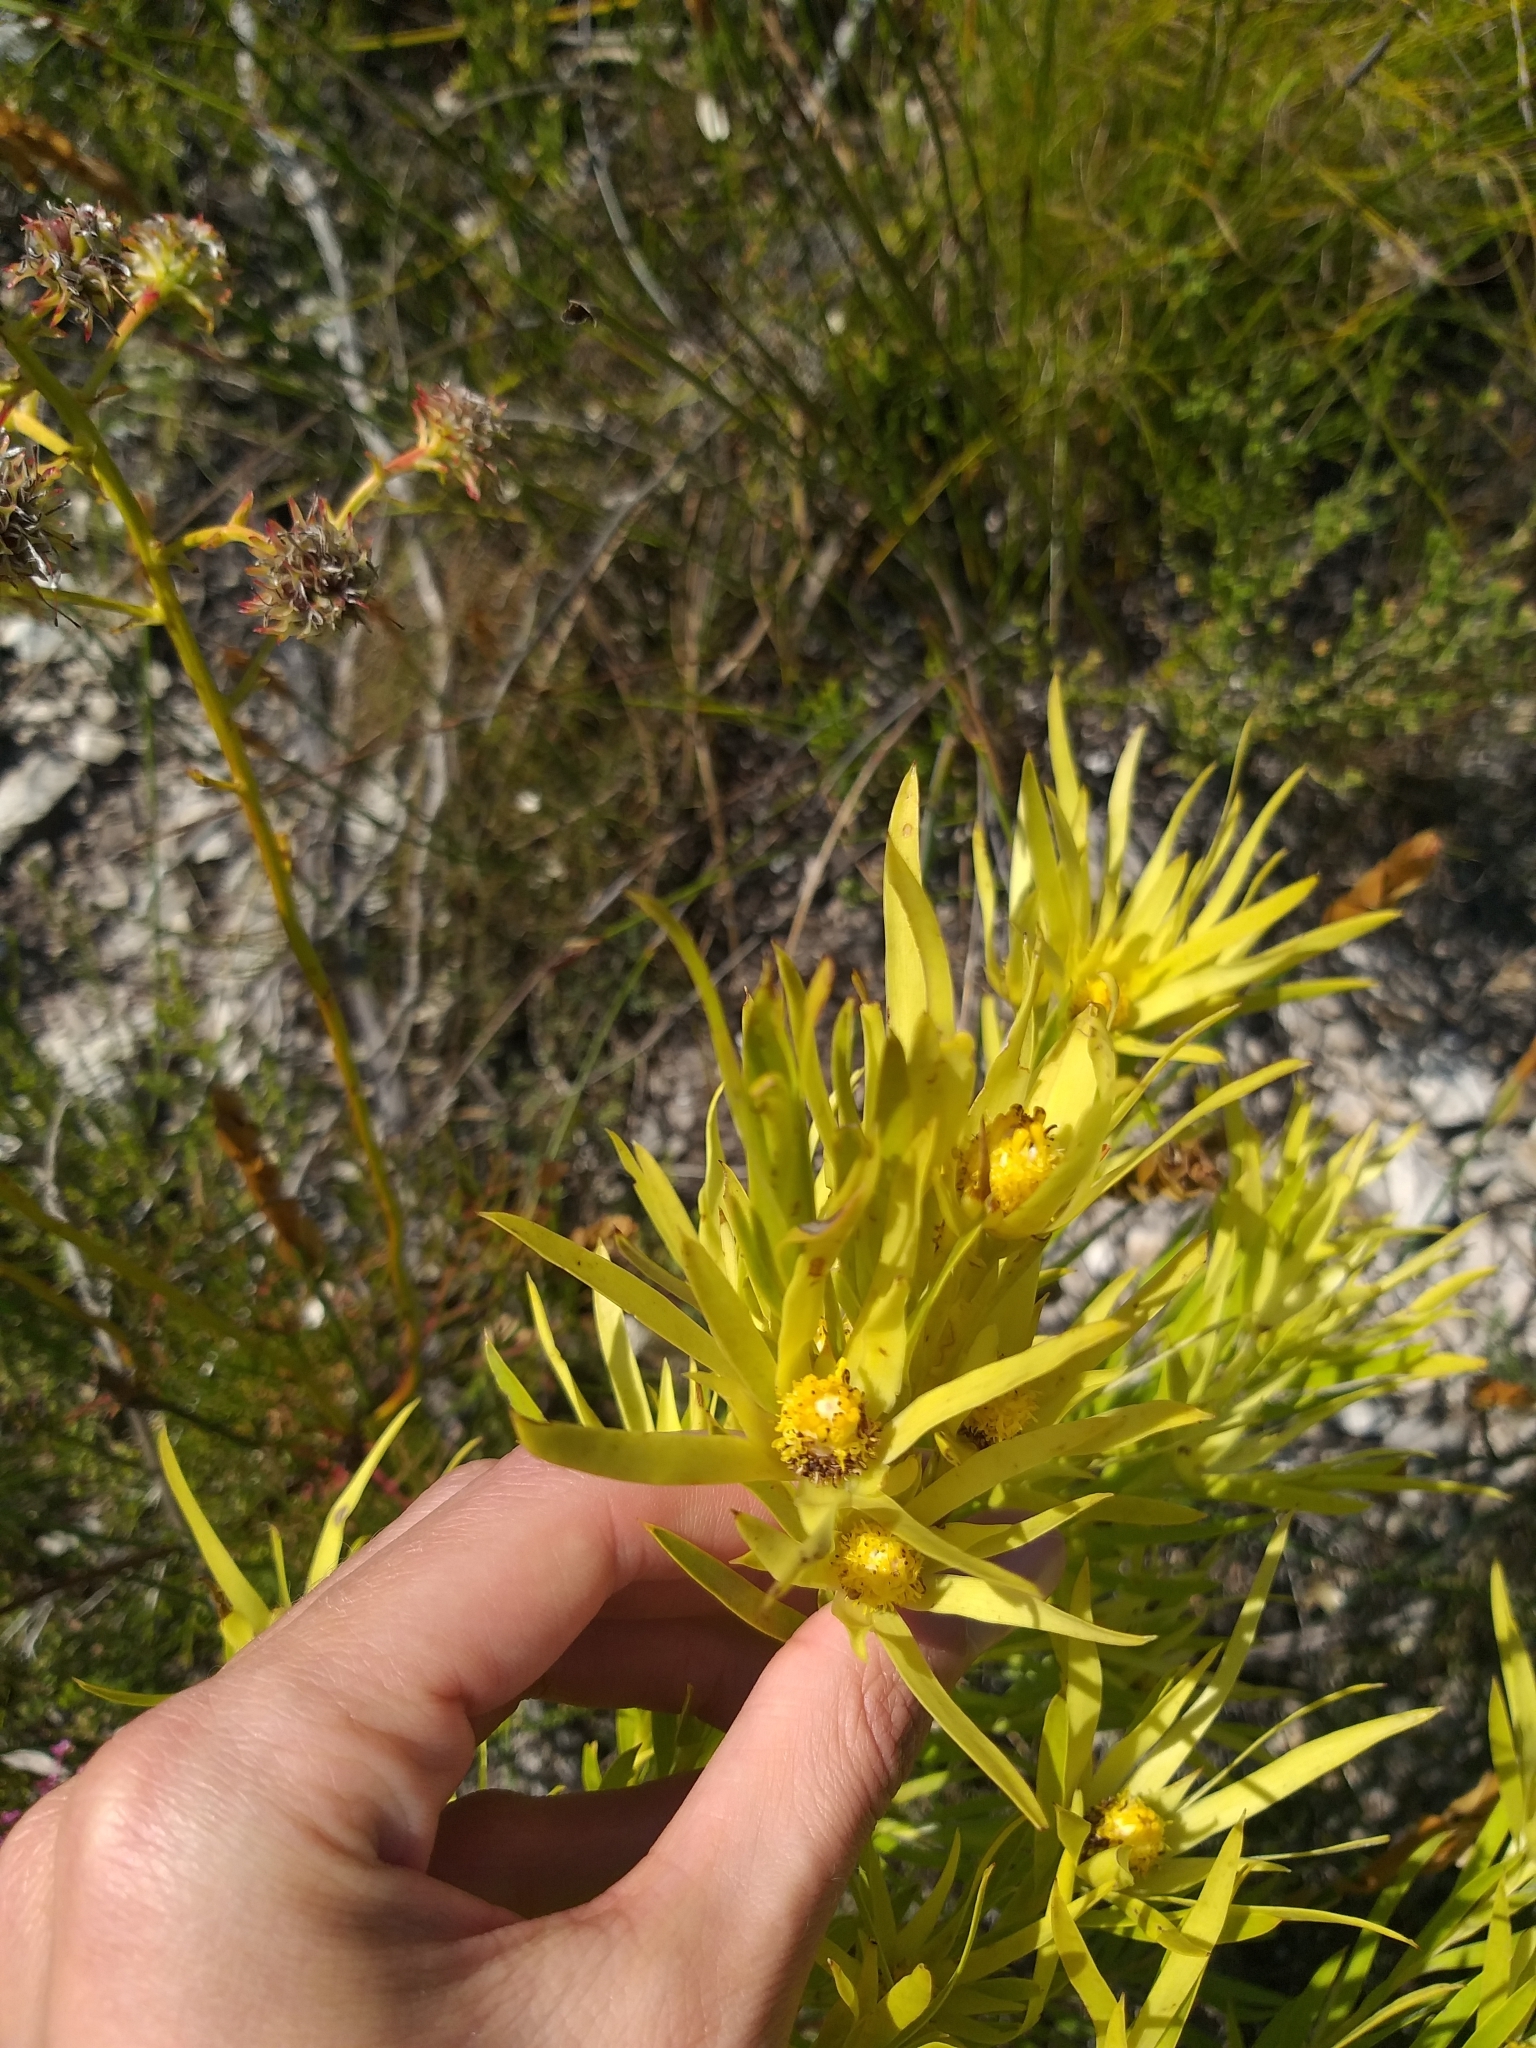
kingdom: Plantae
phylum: Tracheophyta
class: Magnoliopsida
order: Proteales
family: Proteaceae
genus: Leucadendron
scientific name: Leucadendron xanthoconus
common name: Sickle-leaf conebush
